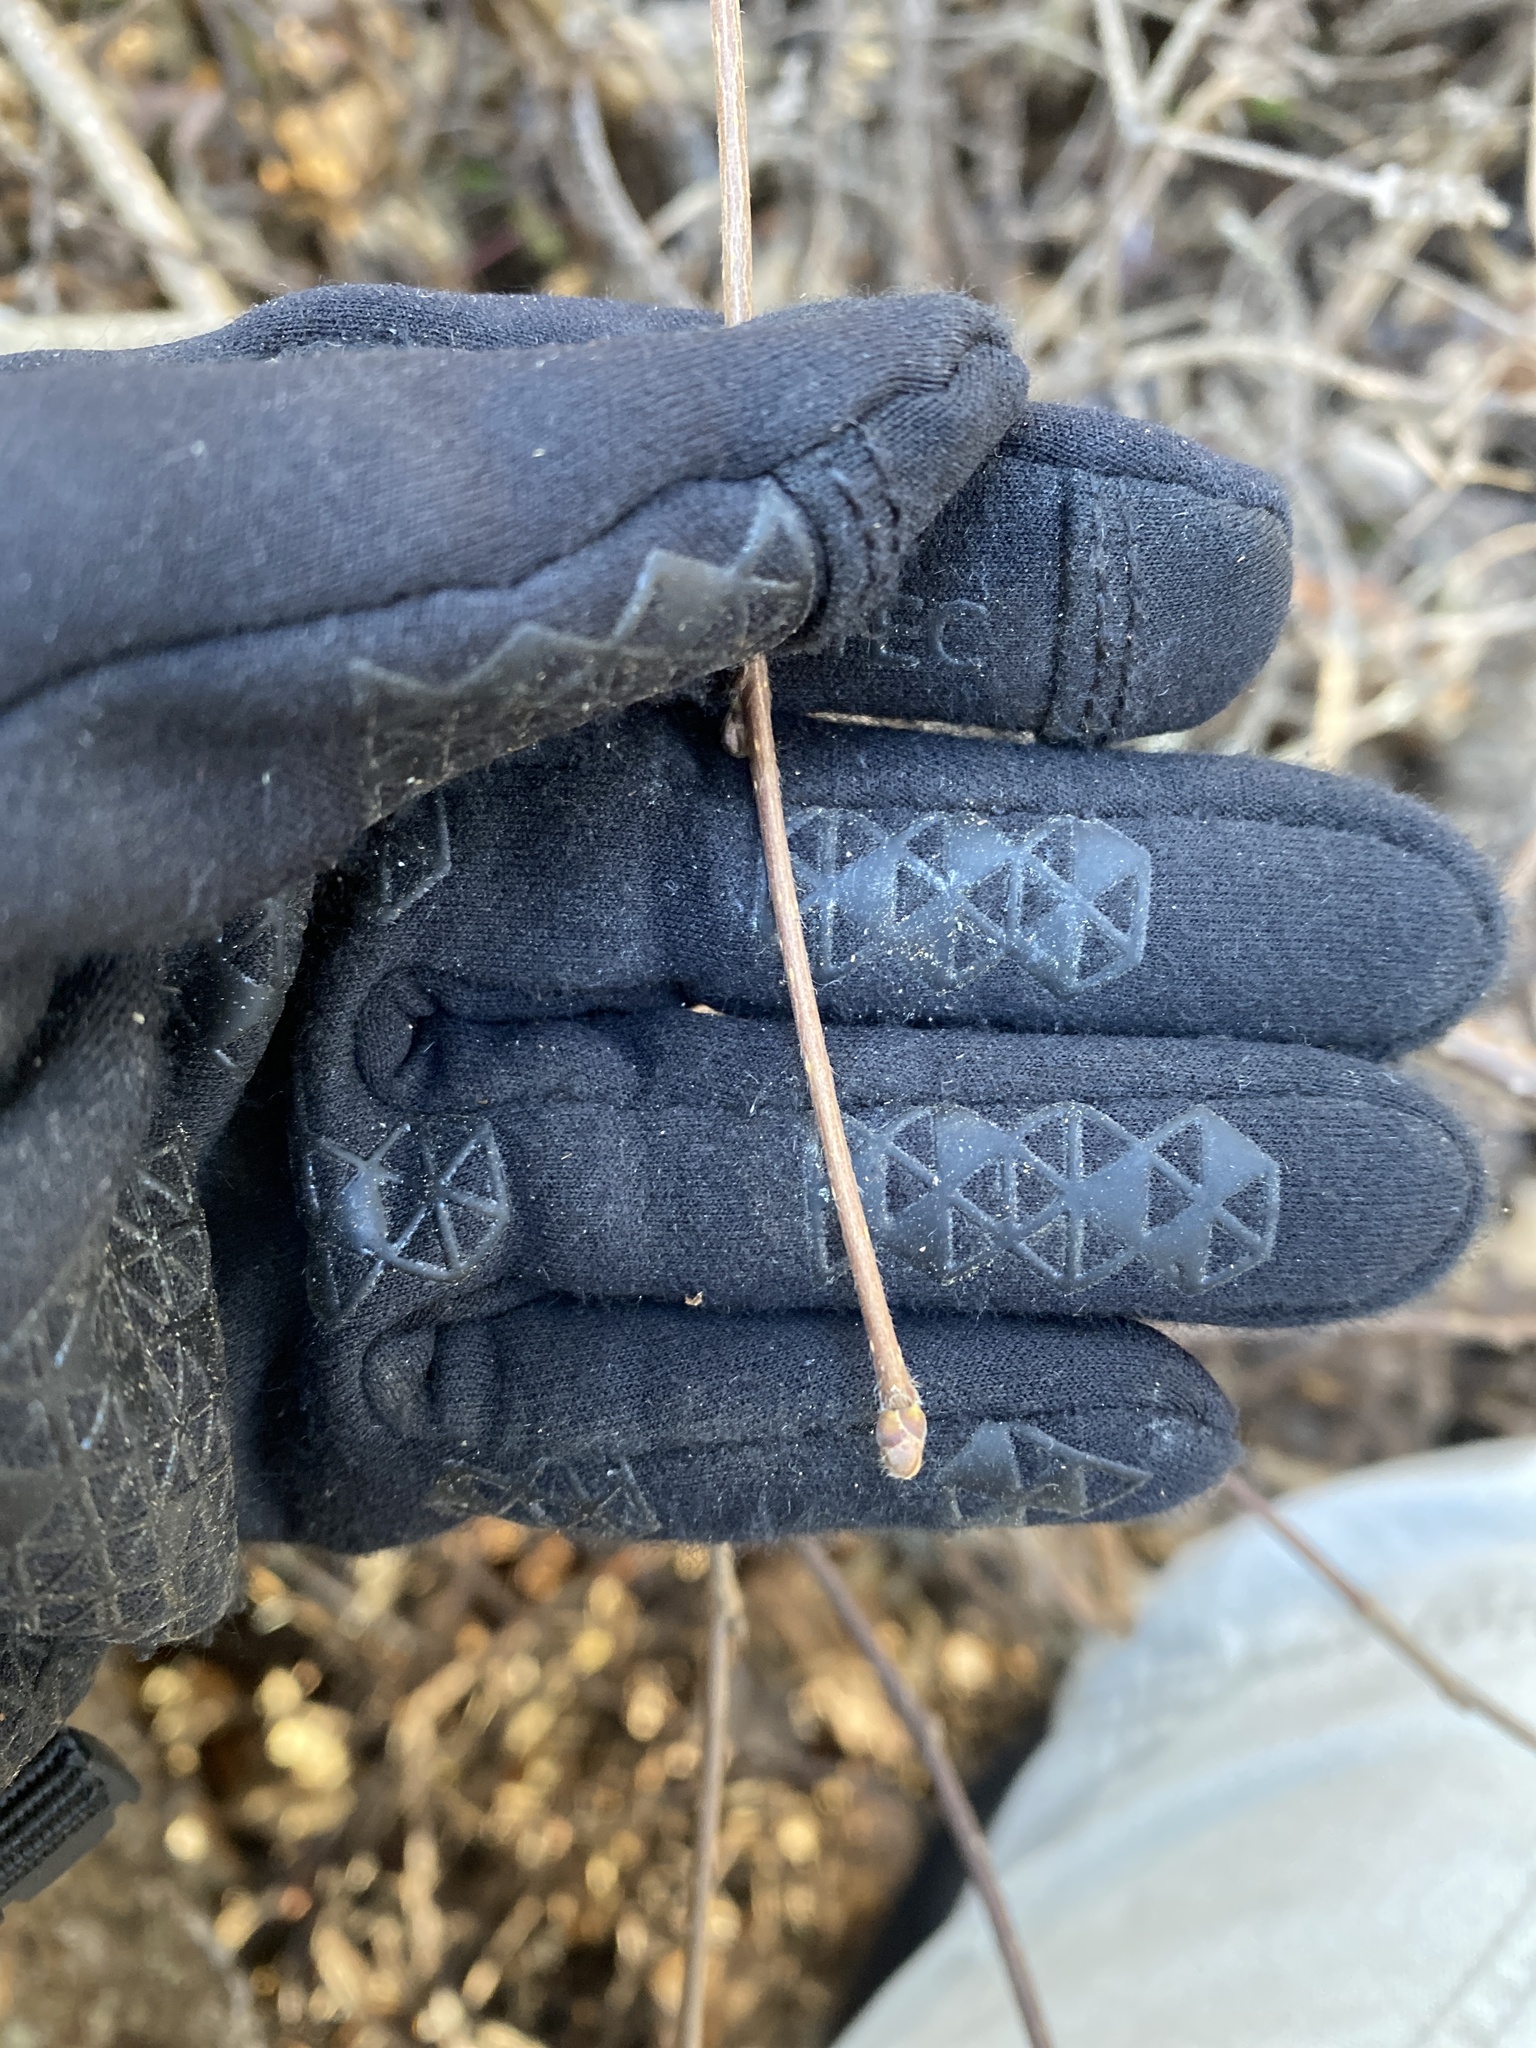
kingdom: Plantae
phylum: Tracheophyta
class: Magnoliopsida
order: Fagales
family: Betulaceae
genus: Corylus
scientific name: Corylus cornuta
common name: Beaked hazel
